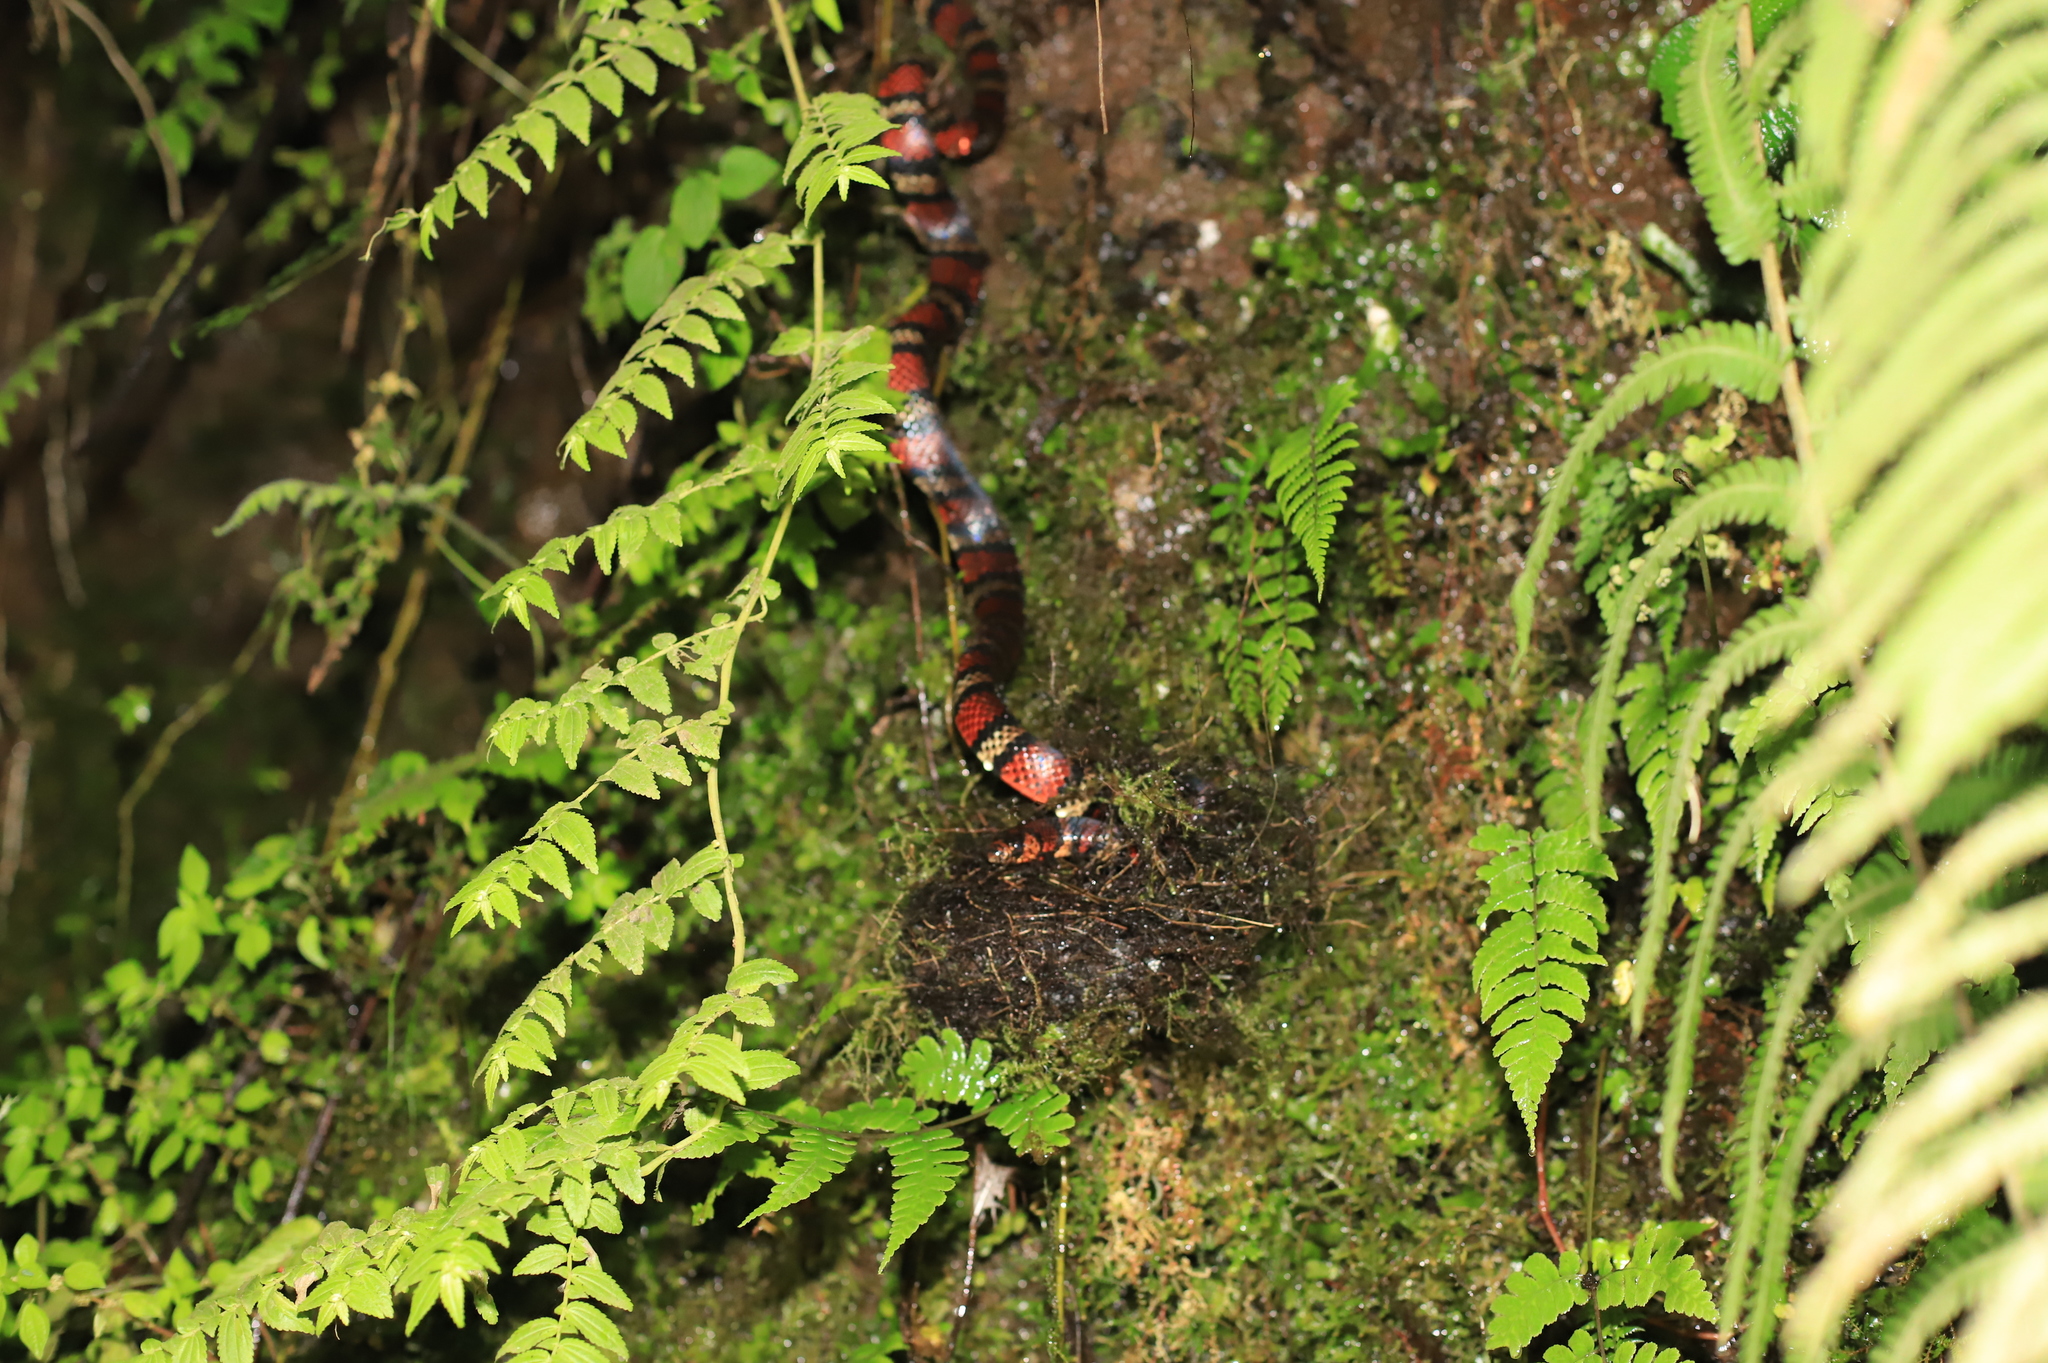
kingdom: Animalia
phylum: Chordata
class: Squamata
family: Colubridae
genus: Lampropeltis
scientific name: Lampropeltis micropholis
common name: Ecuadorian milksnake
